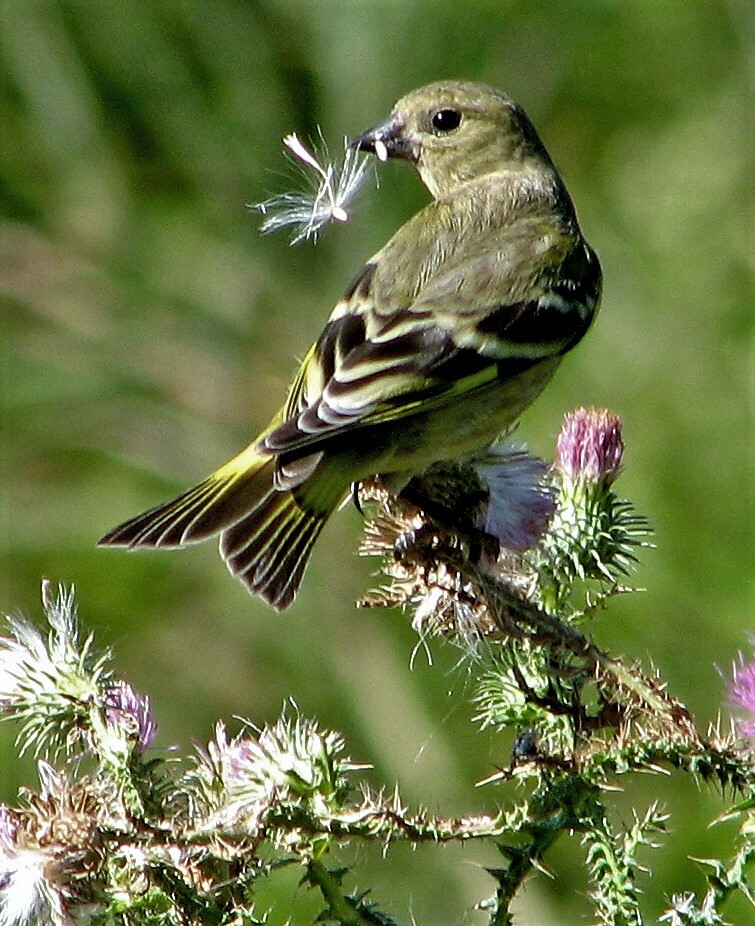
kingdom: Animalia
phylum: Chordata
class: Aves
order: Passeriformes
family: Fringillidae
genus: Spinus
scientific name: Spinus magellanicus
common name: Hooded siskin
